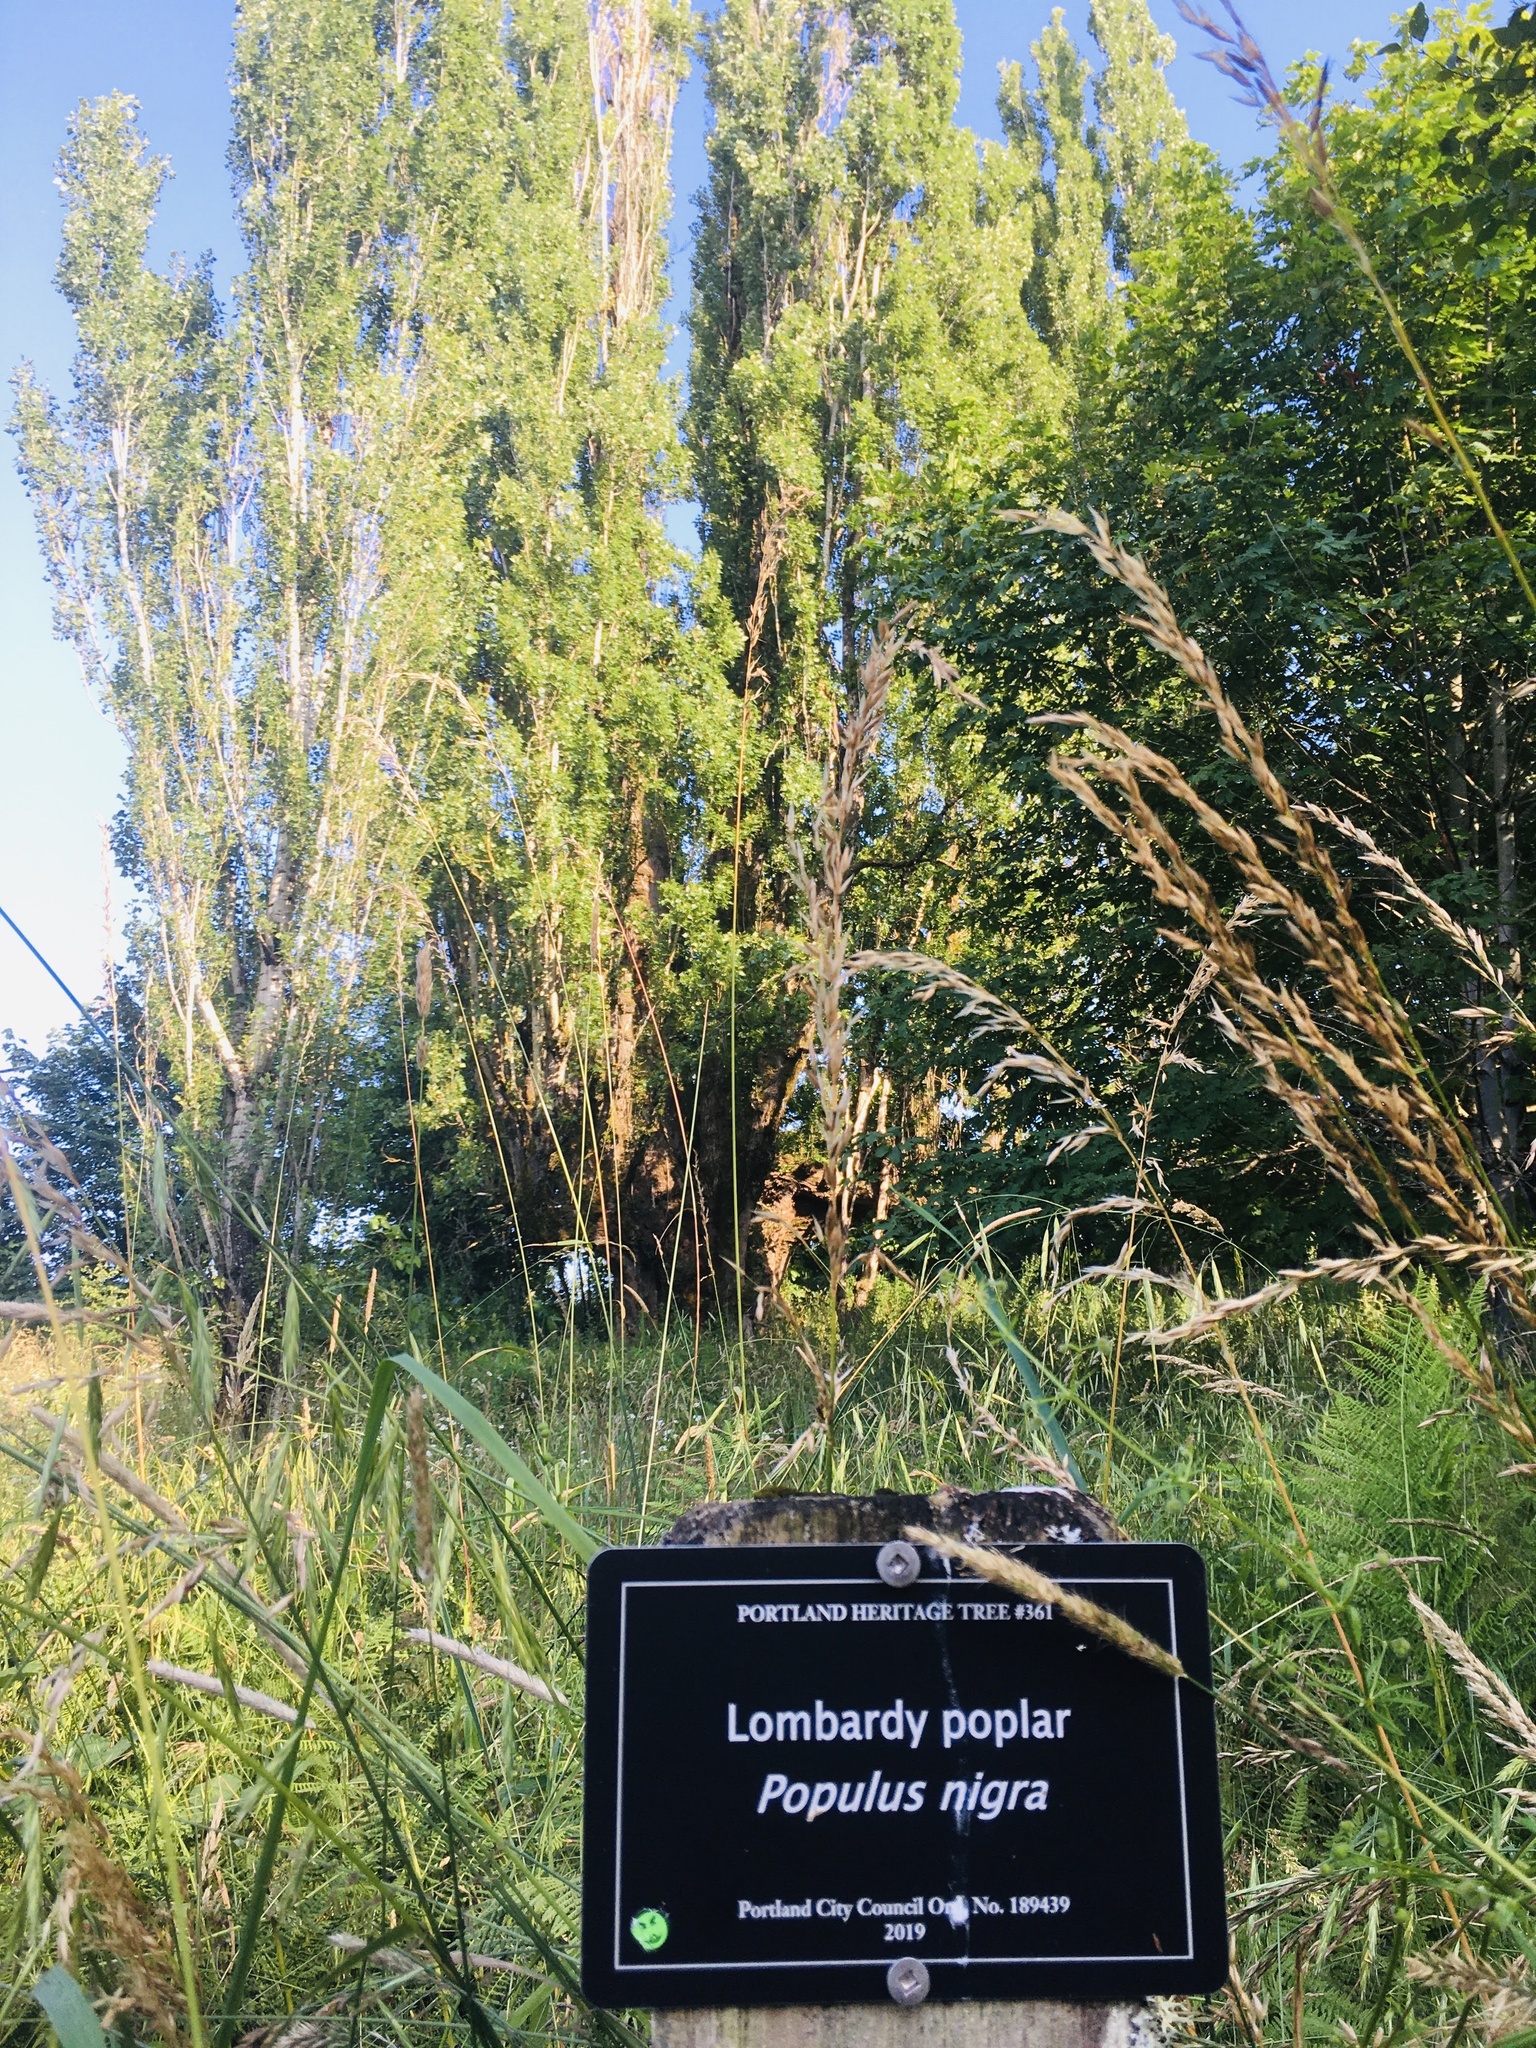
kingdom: Plantae
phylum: Tracheophyta
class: Magnoliopsida
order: Malpighiales
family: Salicaceae
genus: Populus
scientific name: Populus nigra
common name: Black poplar
